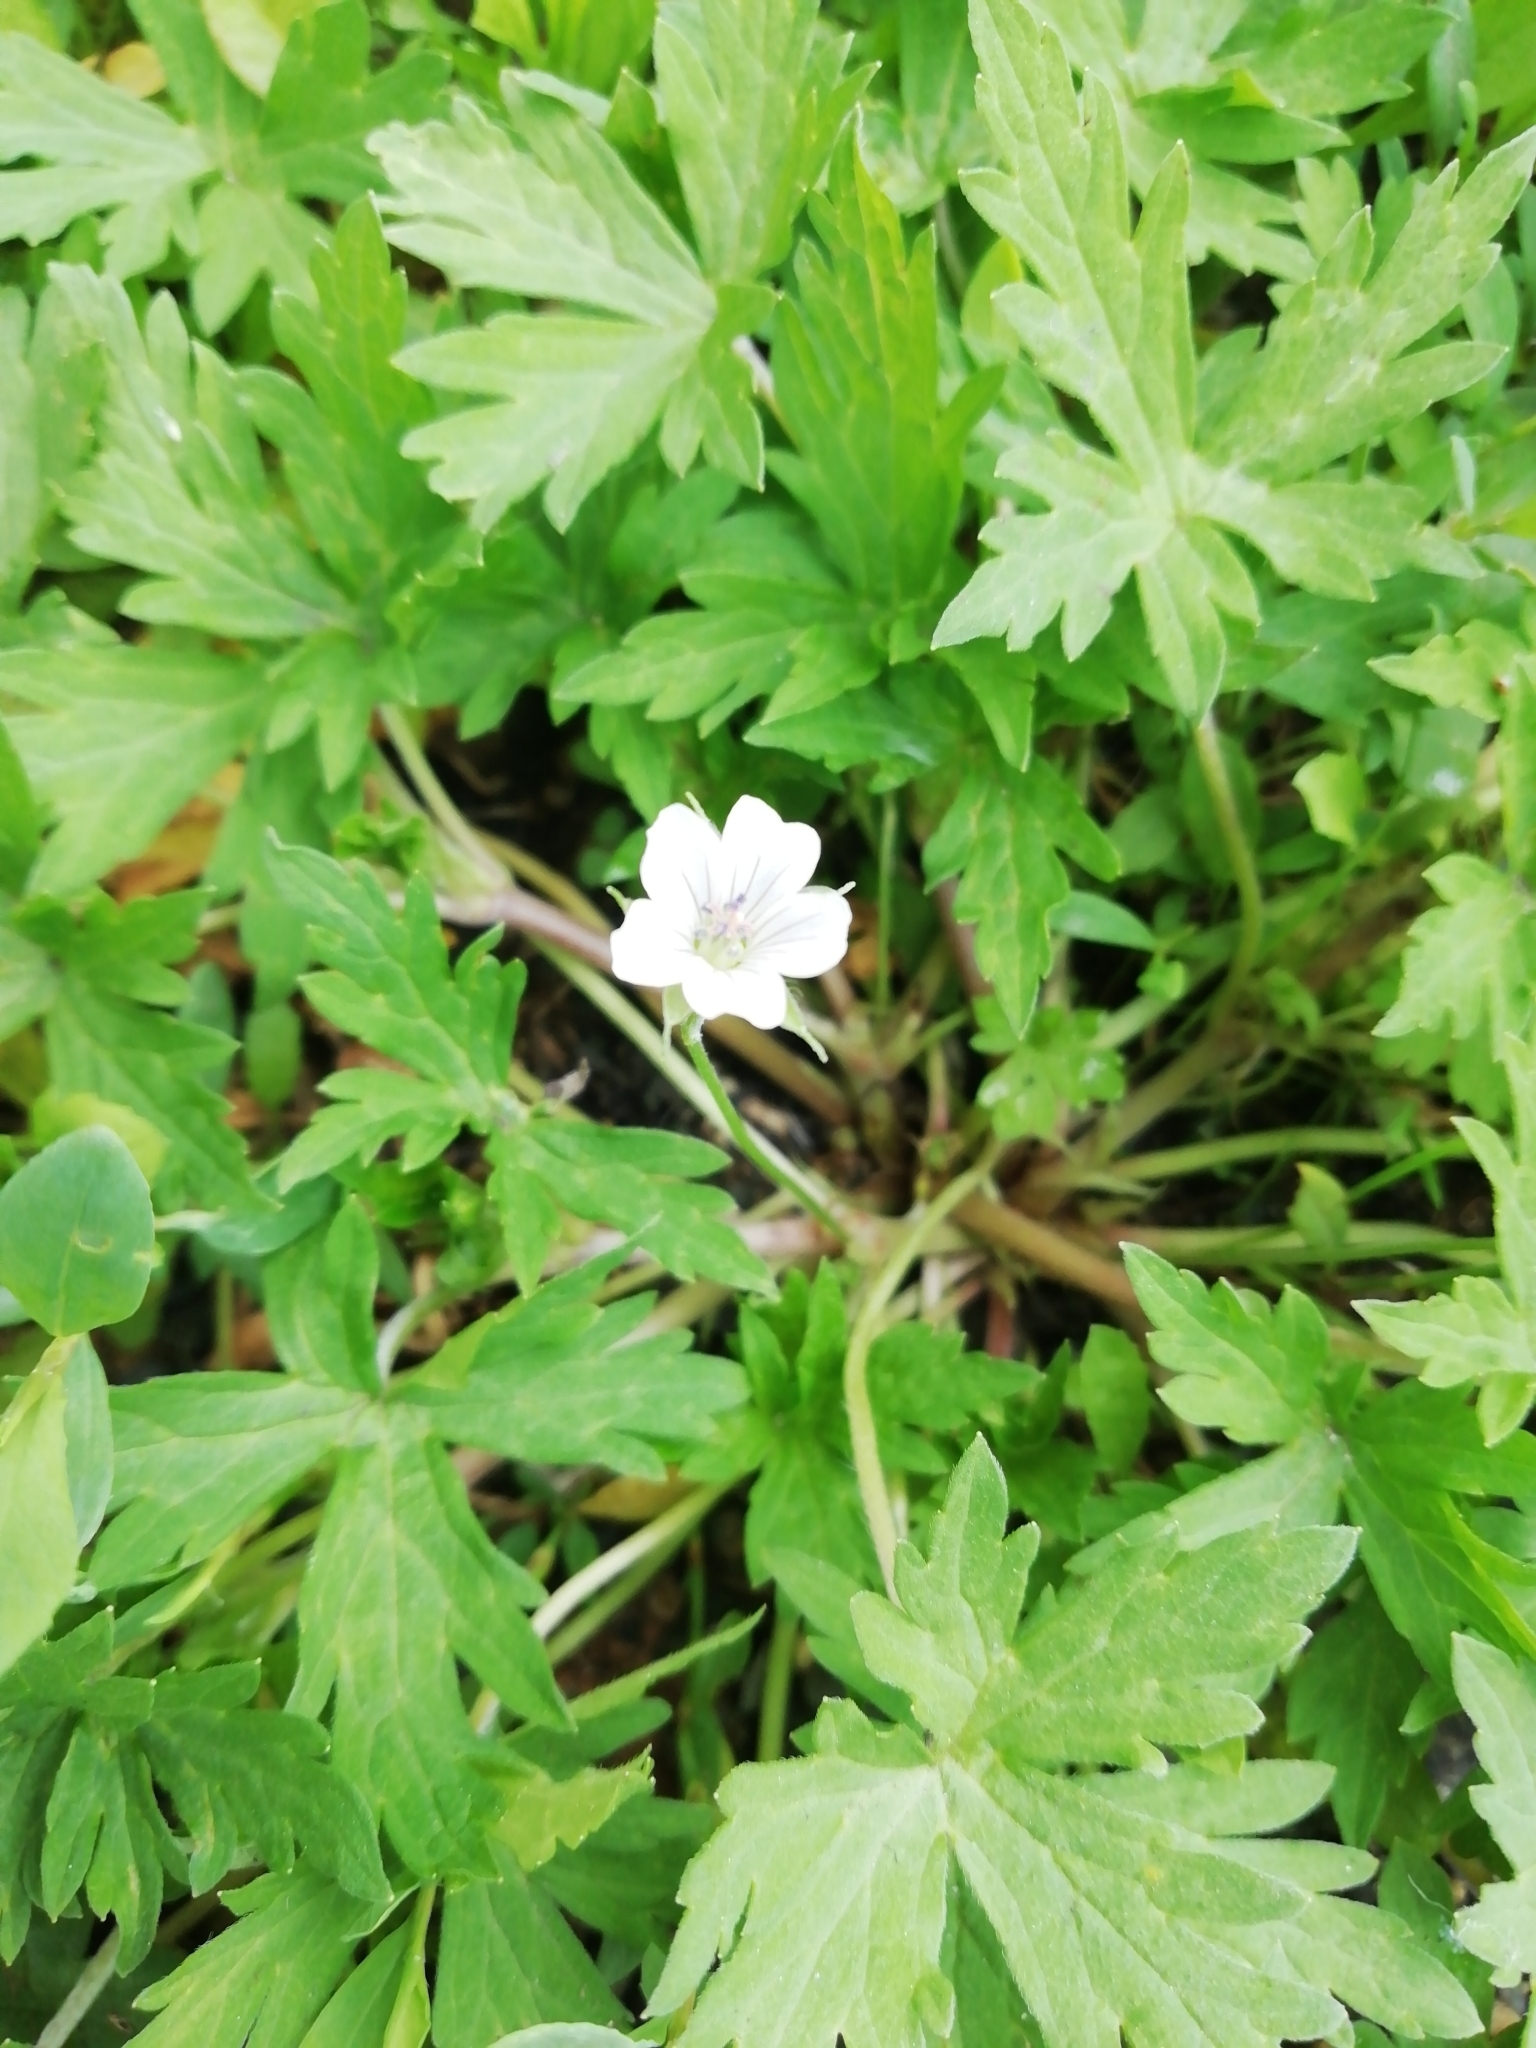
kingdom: Plantae
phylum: Tracheophyta
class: Magnoliopsida
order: Geraniales
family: Geraniaceae
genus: Geranium
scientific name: Geranium sibiricum
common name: Siberian crane's-bill
